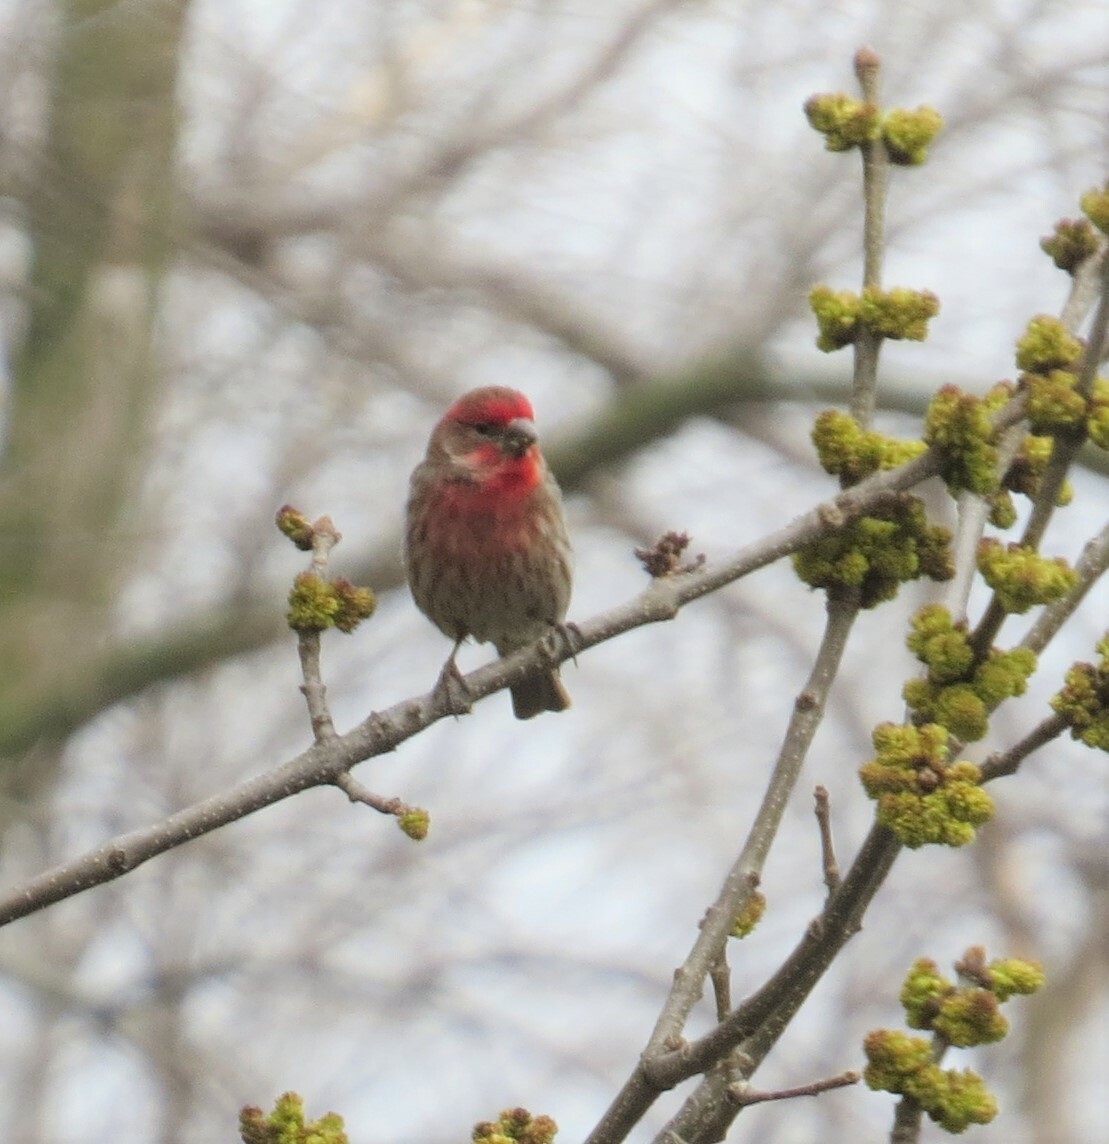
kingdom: Animalia
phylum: Chordata
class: Aves
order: Passeriformes
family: Fringillidae
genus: Haemorhous
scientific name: Haemorhous mexicanus
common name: House finch
